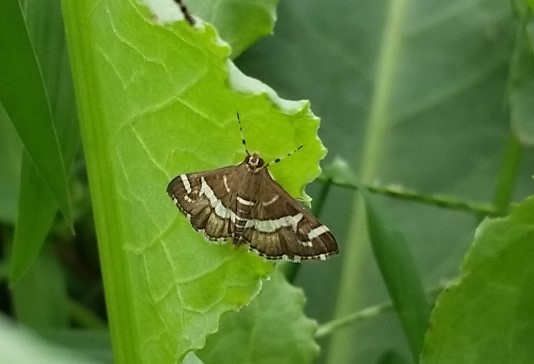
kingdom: Animalia
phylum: Arthropoda
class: Insecta
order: Lepidoptera
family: Crambidae
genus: Spoladea
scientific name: Spoladea recurvalis
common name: Beet webworm moth
